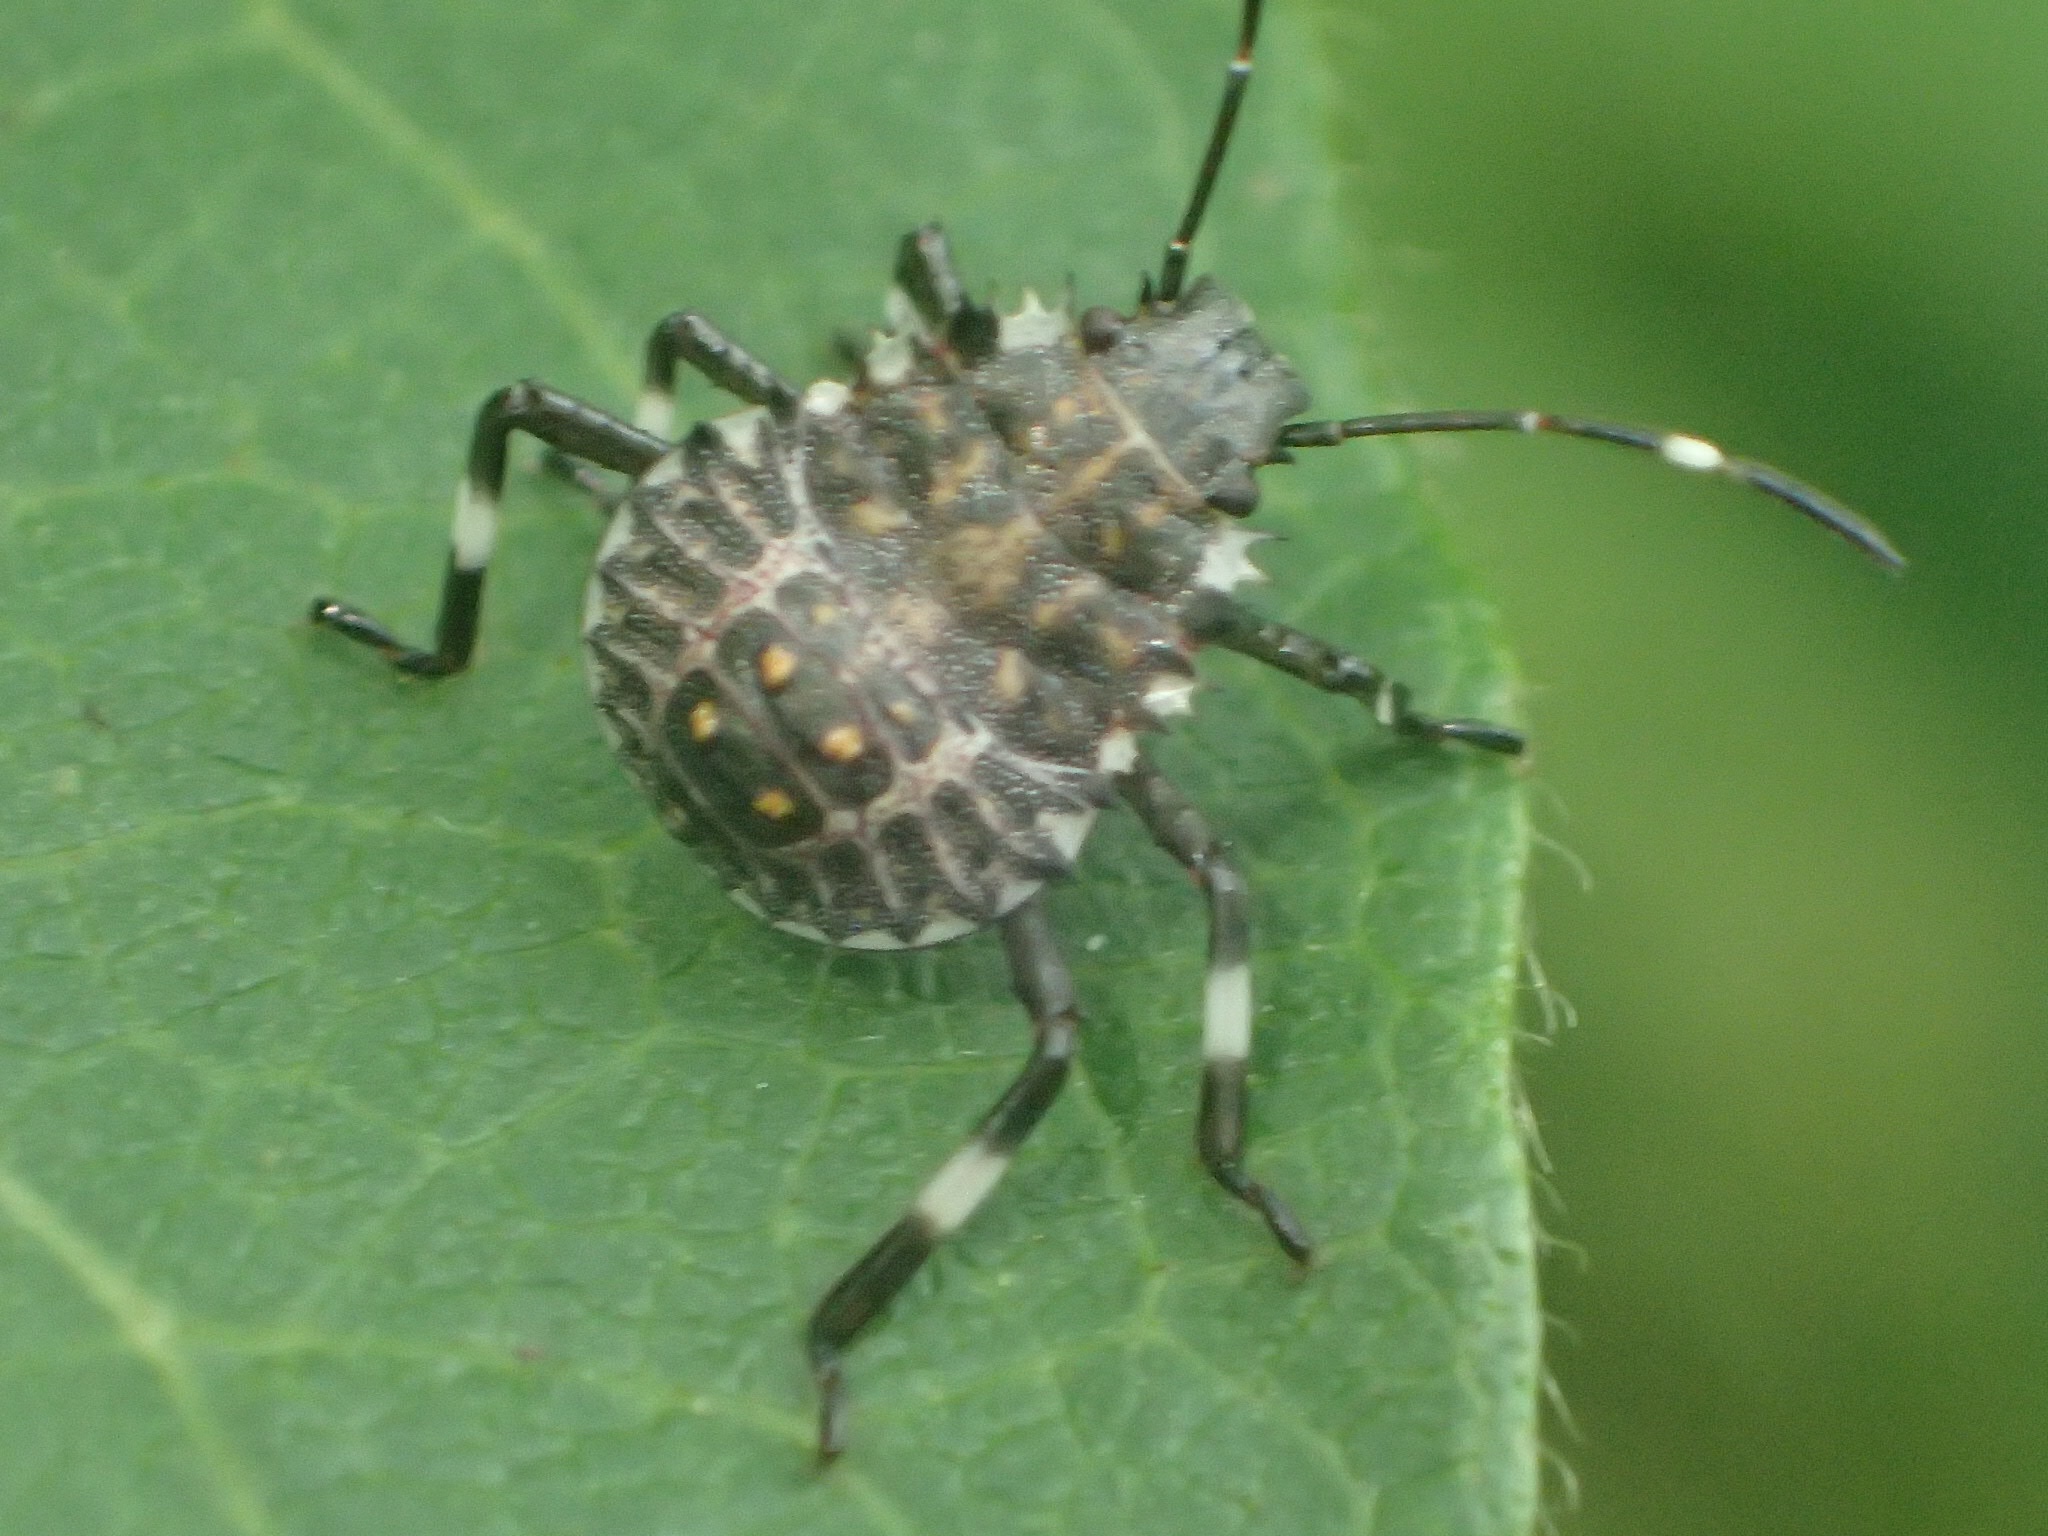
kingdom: Animalia
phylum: Arthropoda
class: Insecta
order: Hemiptera
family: Pentatomidae
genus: Halyomorpha
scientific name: Halyomorpha halys
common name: Brown marmorated stink bug
